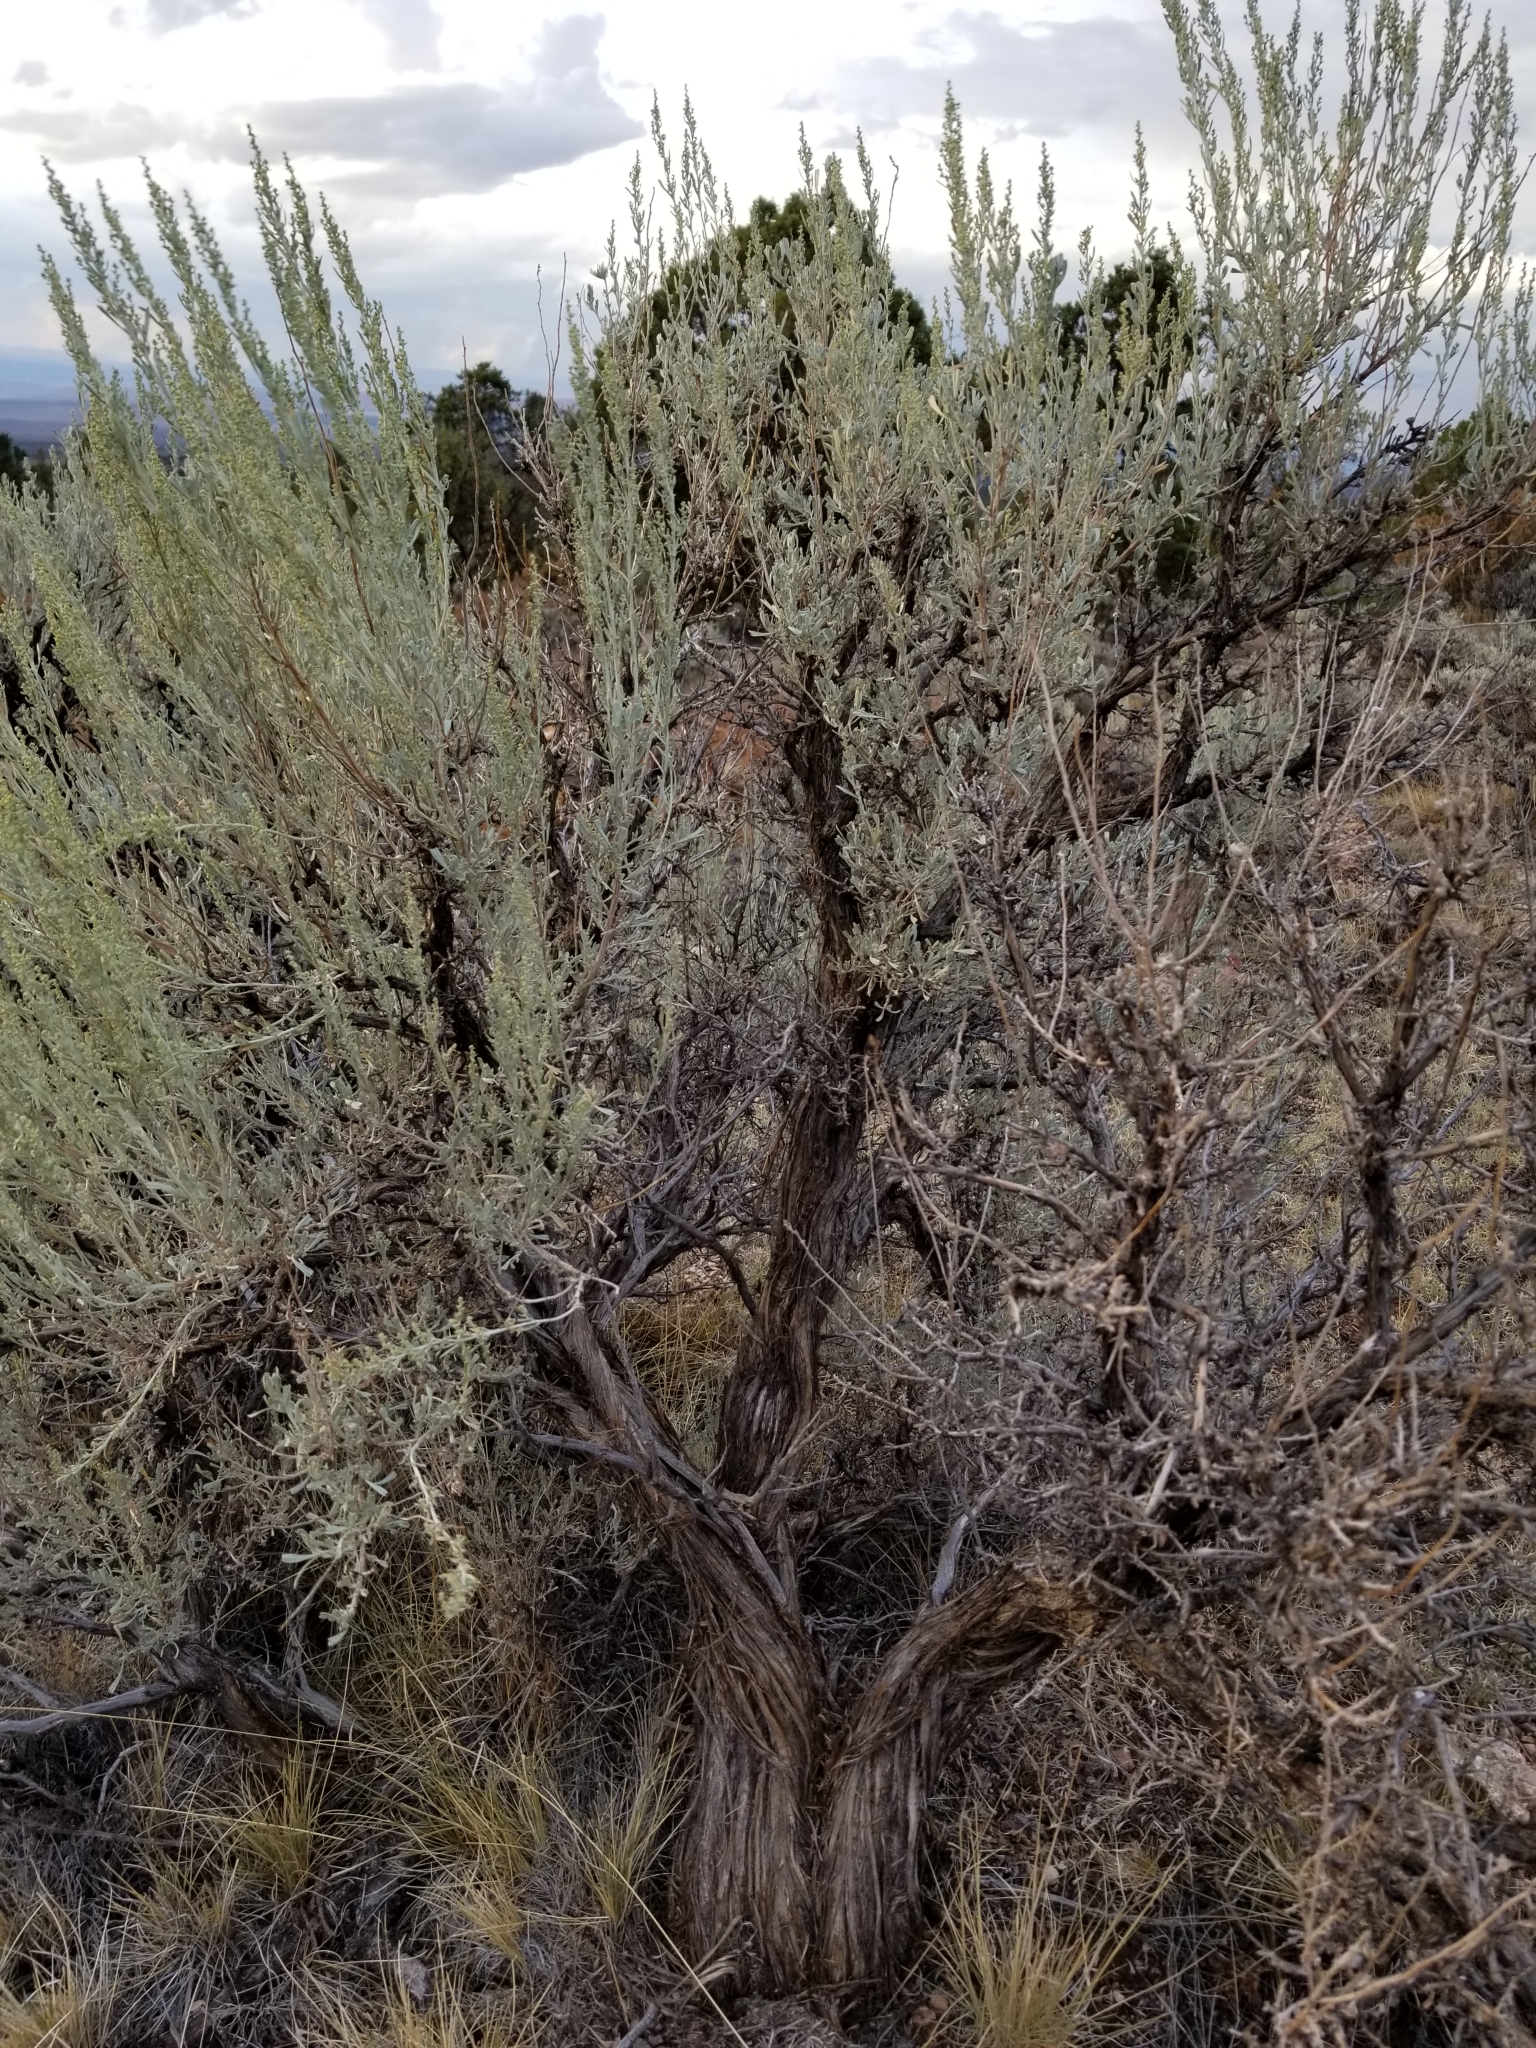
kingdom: Plantae
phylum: Tracheophyta
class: Magnoliopsida
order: Asterales
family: Asteraceae
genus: Artemisia
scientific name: Artemisia tridentata
